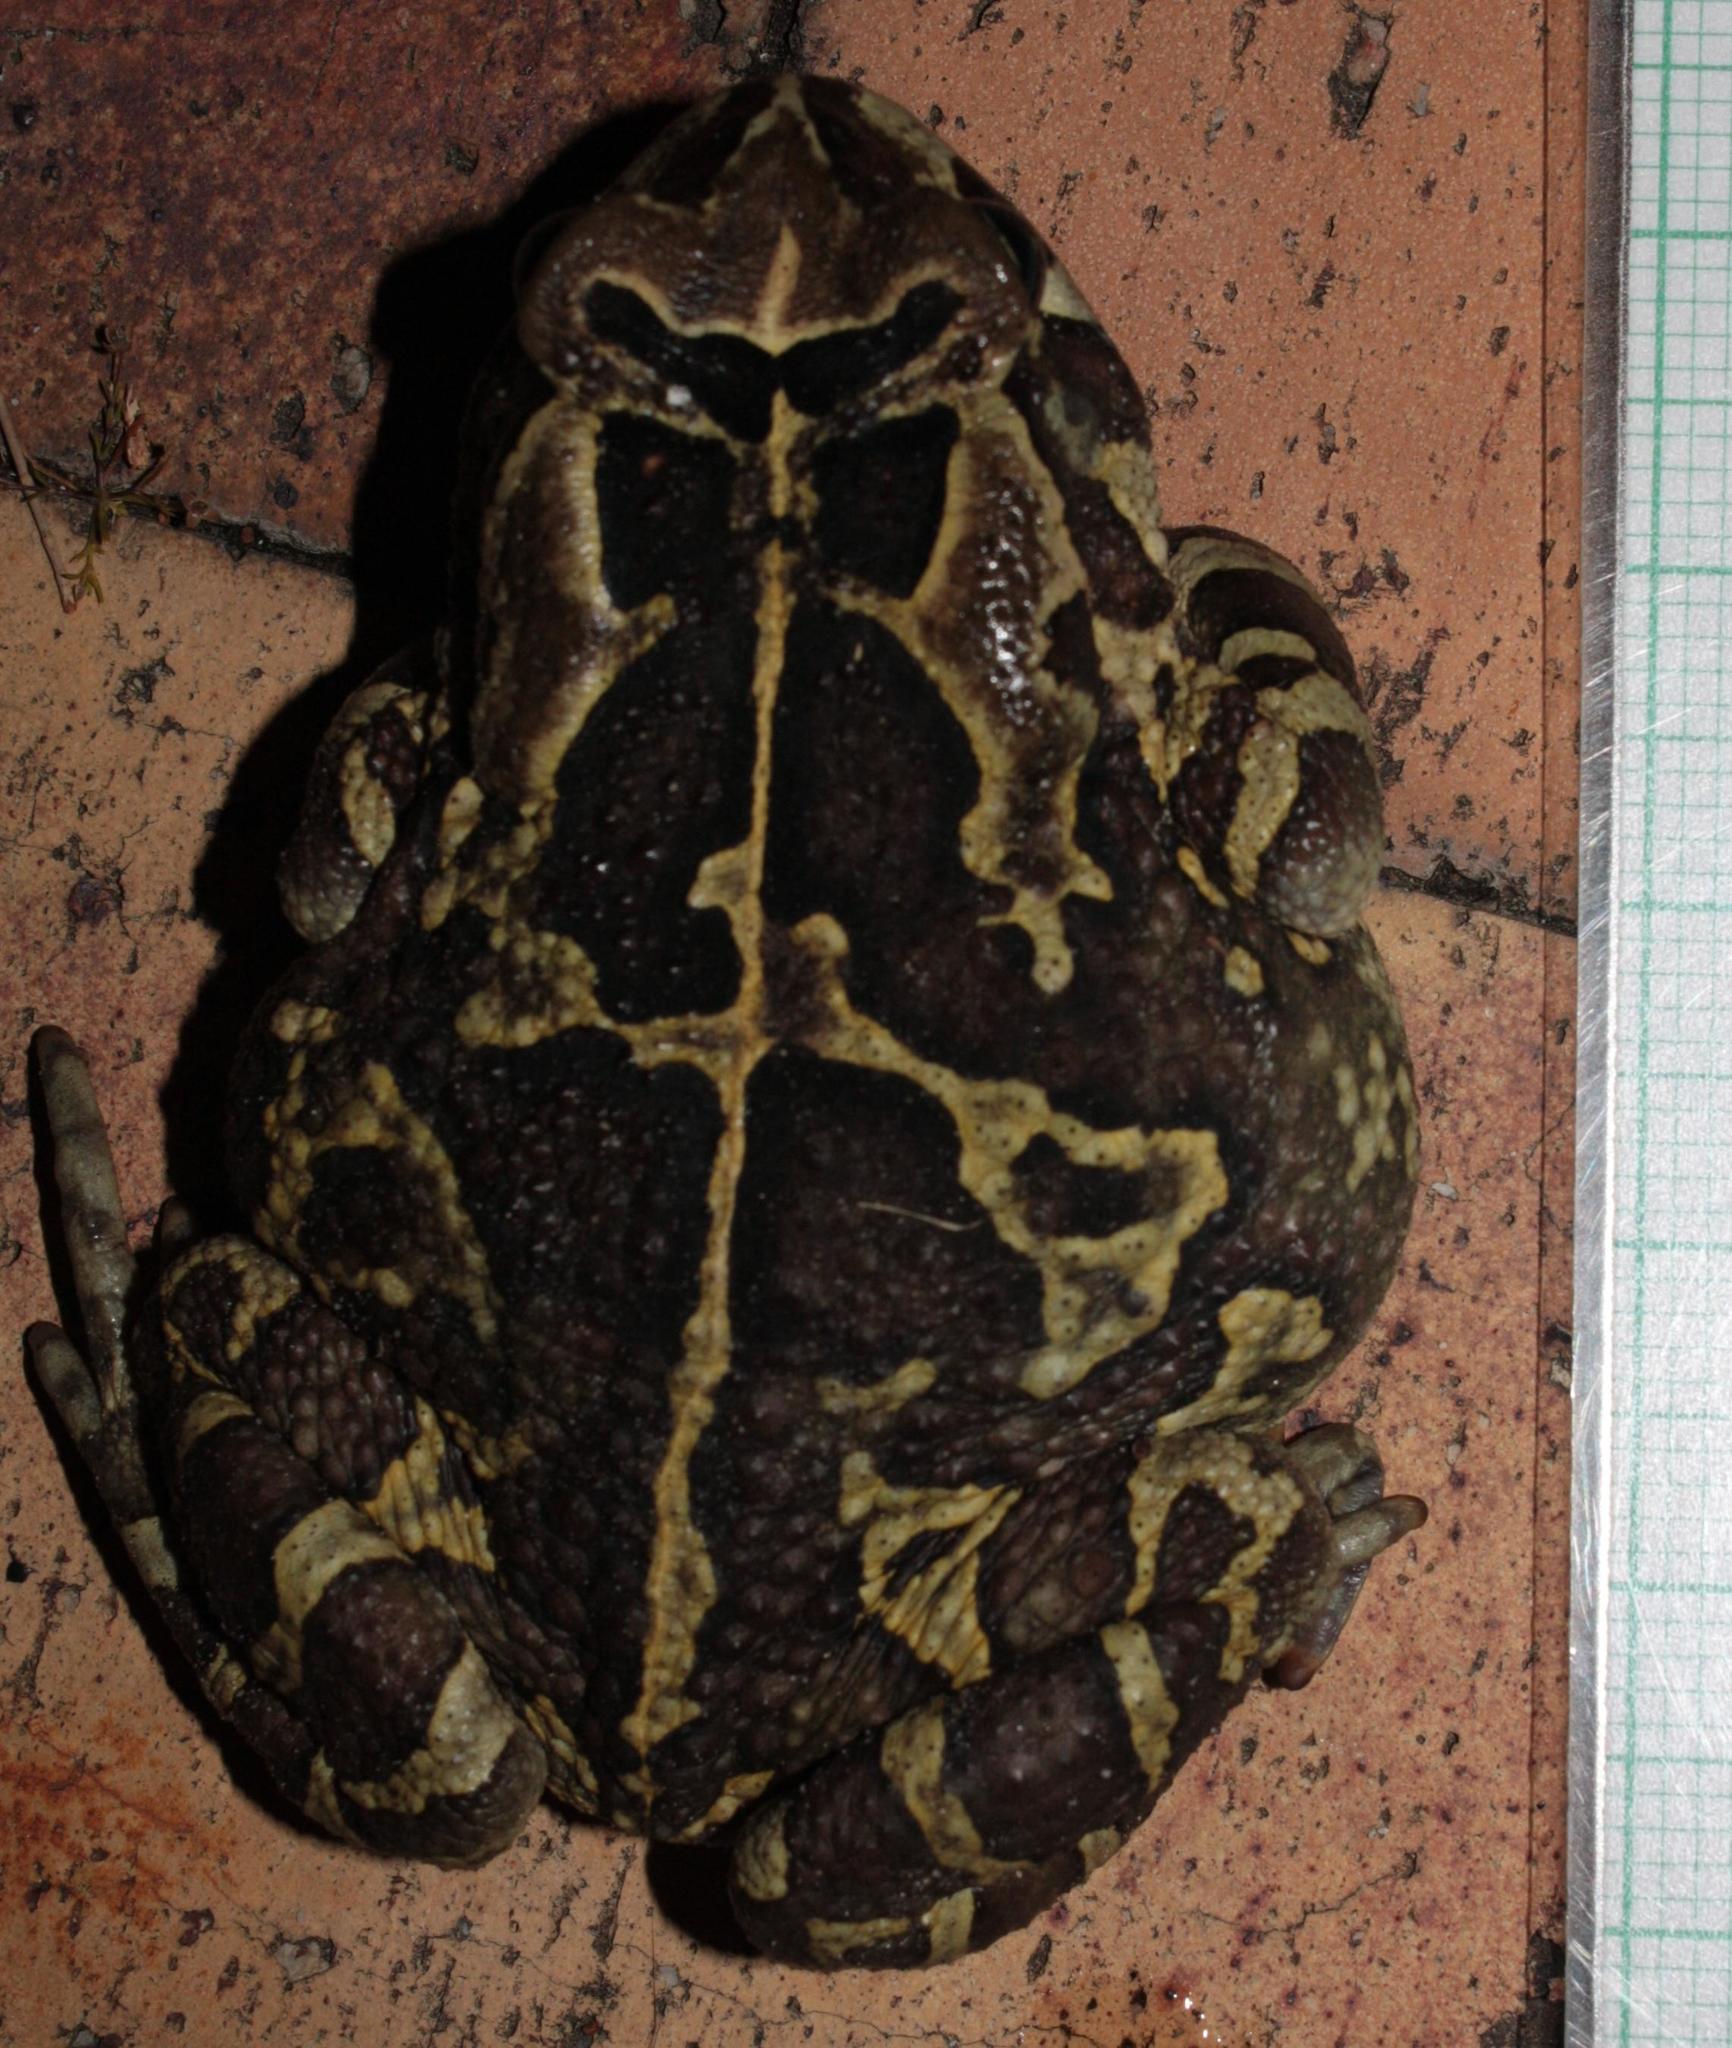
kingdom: Animalia
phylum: Chordata
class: Amphibia
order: Anura
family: Bufonidae
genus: Sclerophrys
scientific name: Sclerophrys pantherina
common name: Panther toad
